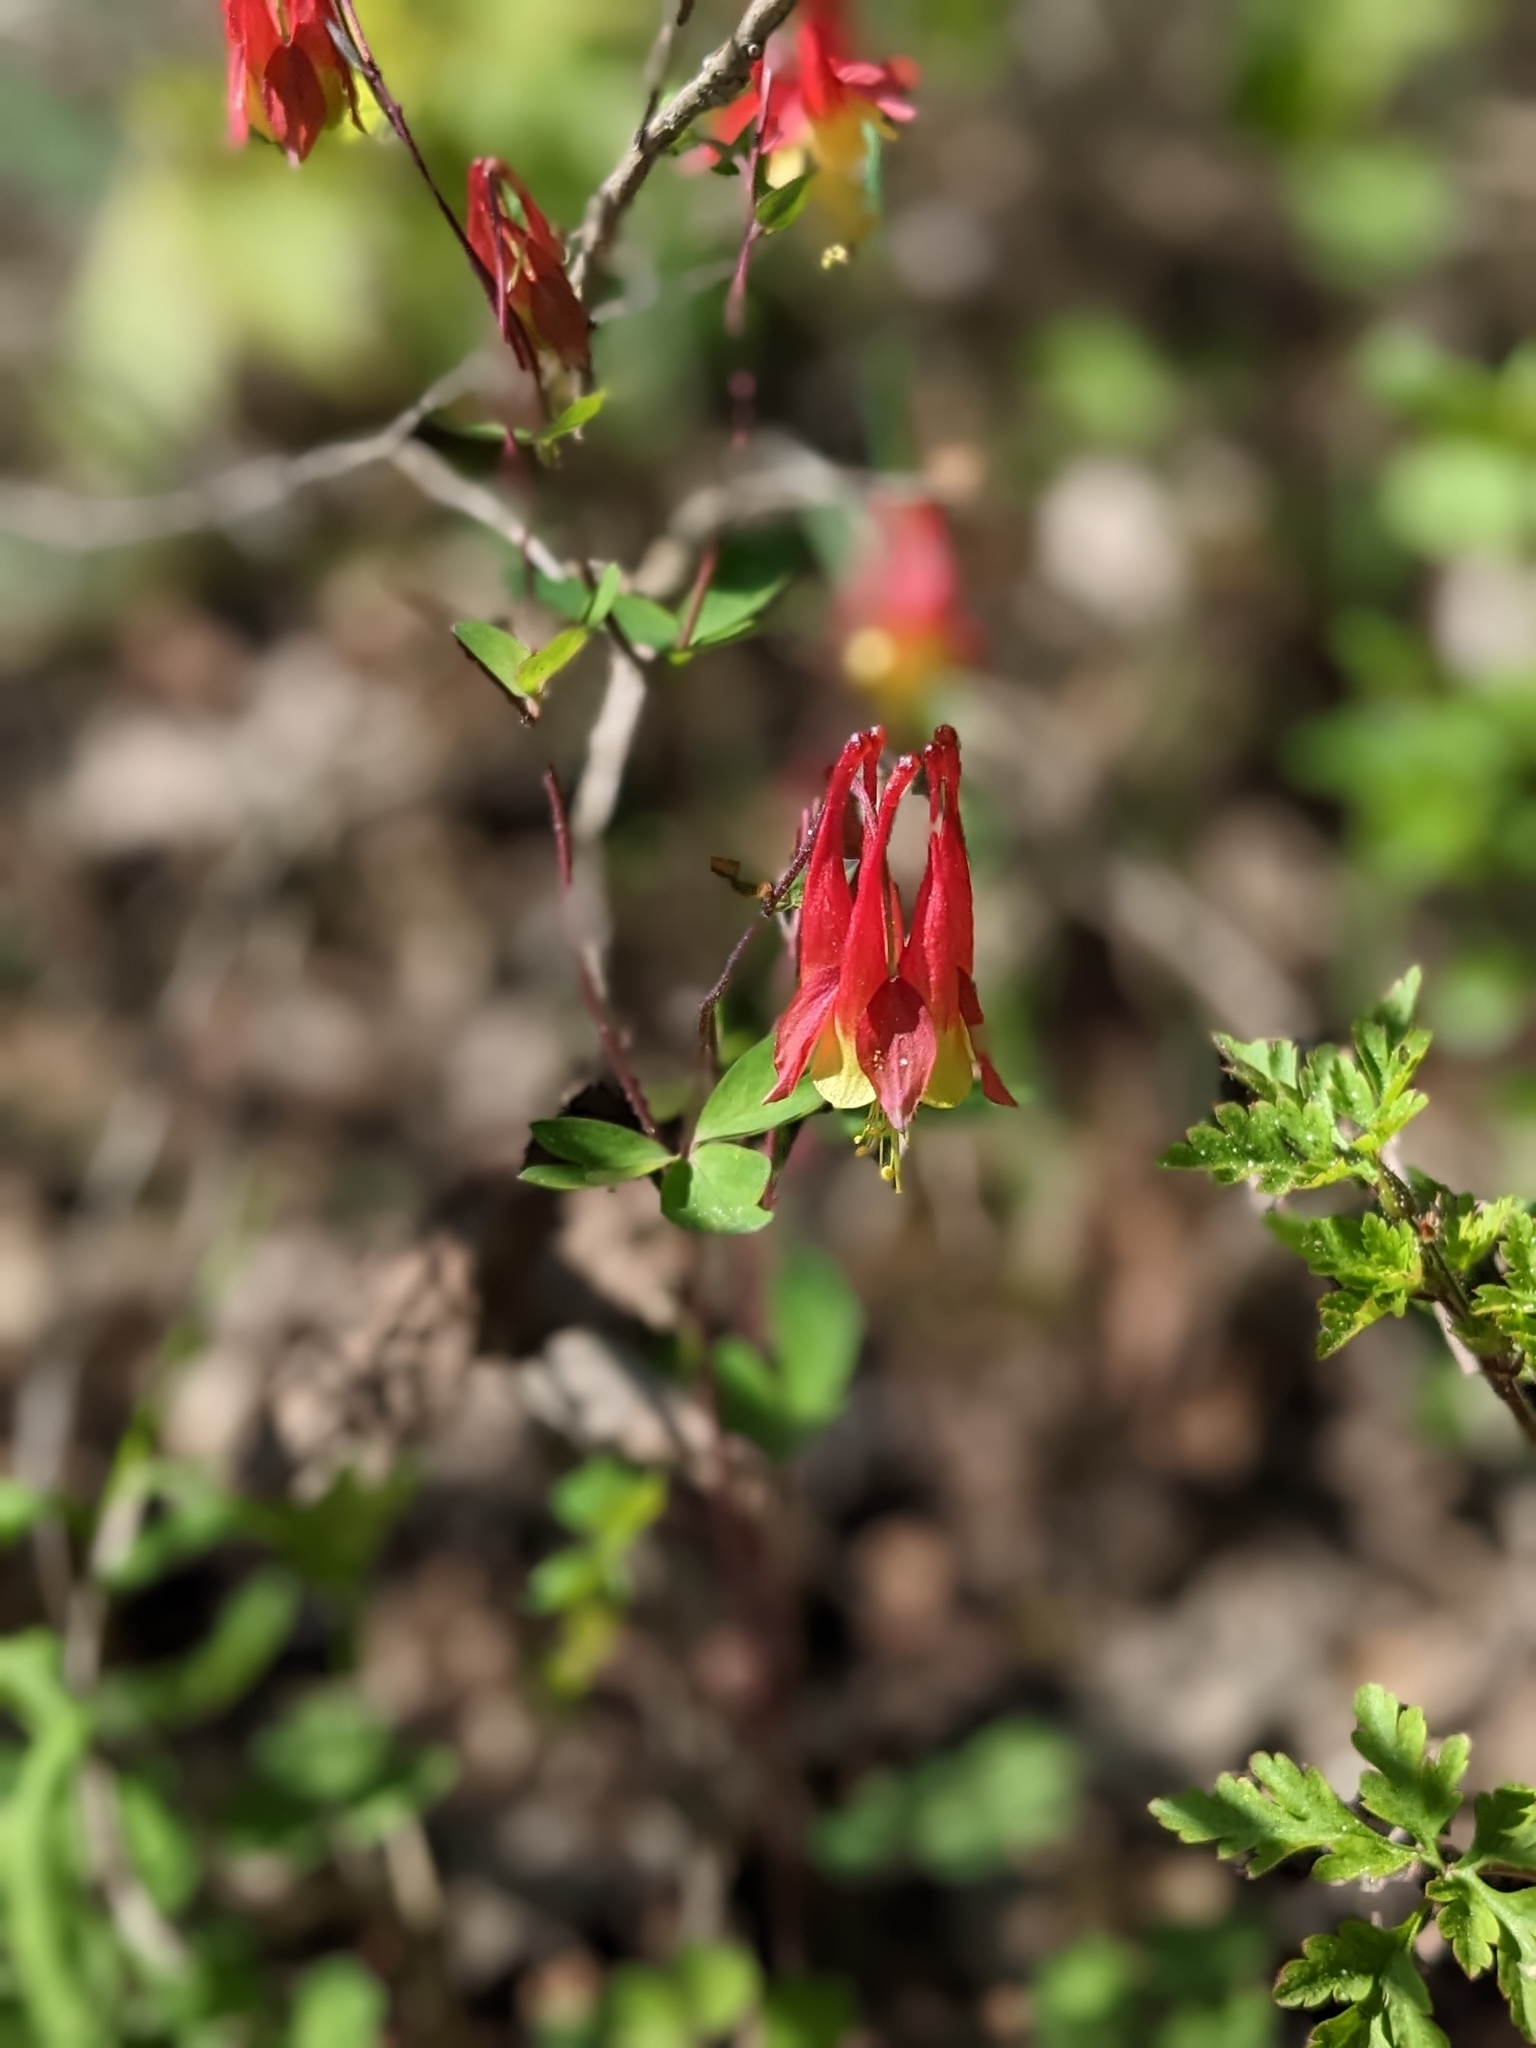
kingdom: Plantae
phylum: Tracheophyta
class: Magnoliopsida
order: Ranunculales
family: Ranunculaceae
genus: Aquilegia
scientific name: Aquilegia canadensis
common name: American columbine
